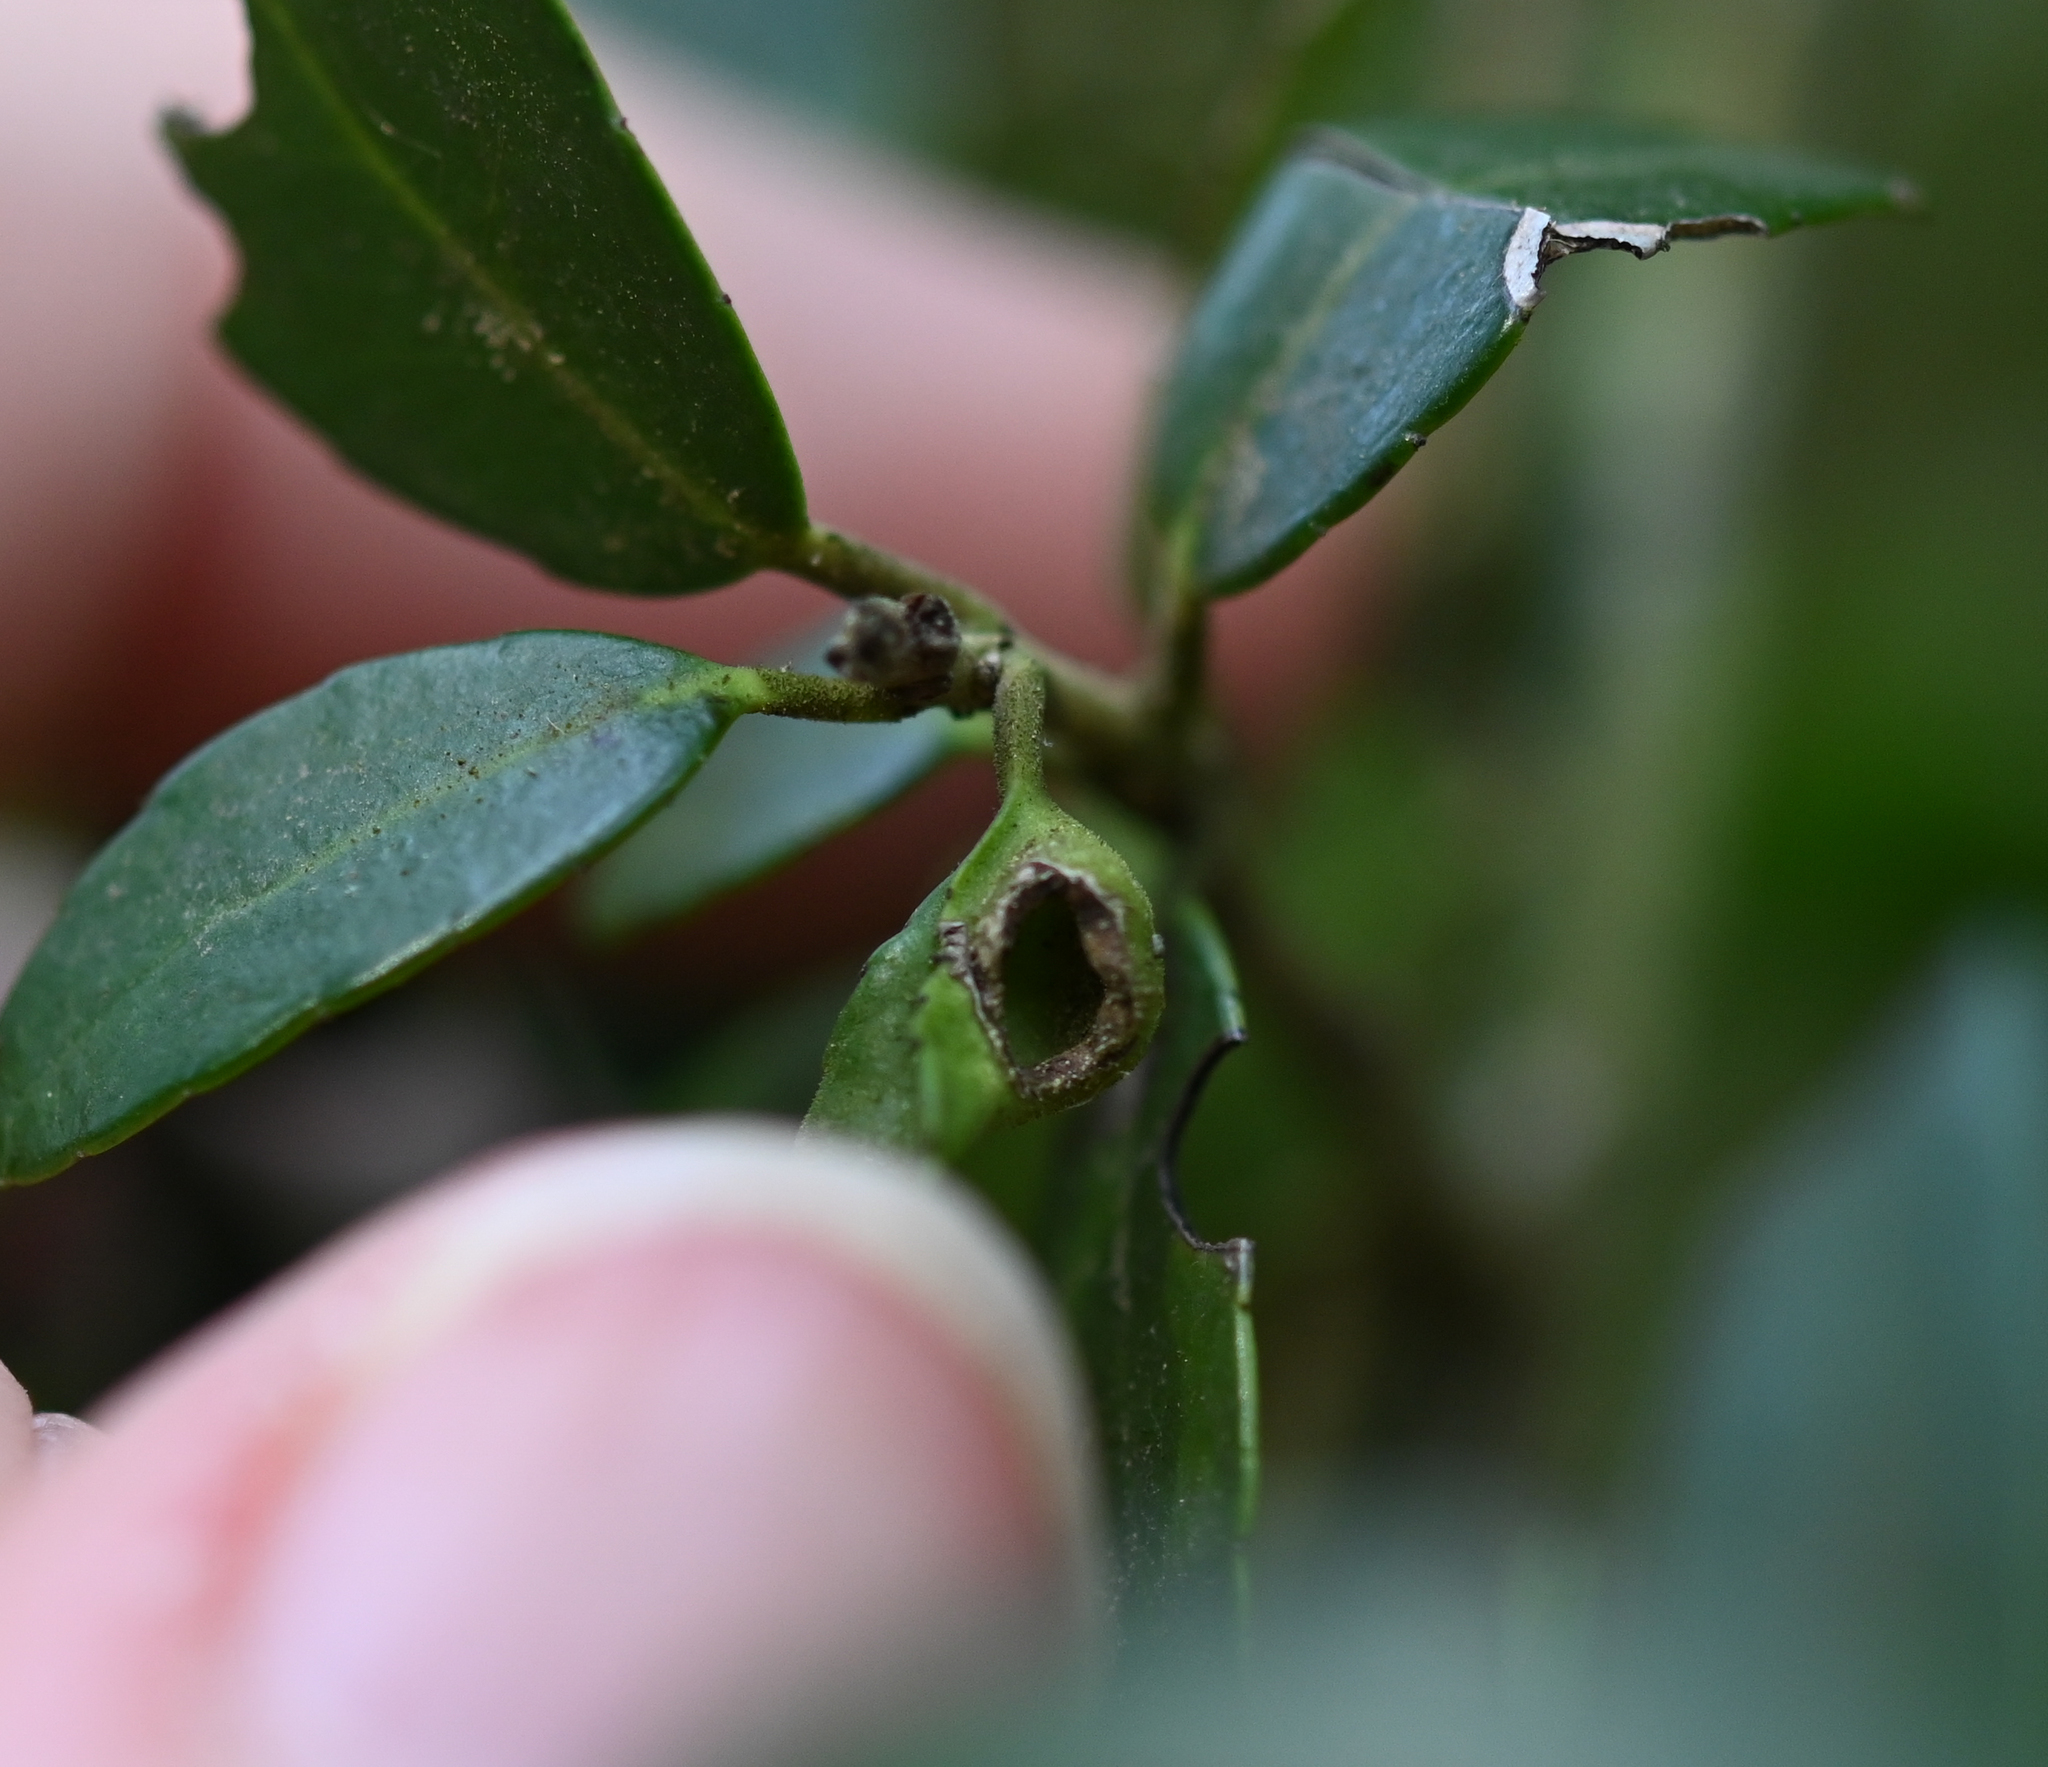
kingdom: Animalia
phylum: Arthropoda
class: Insecta
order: Hemiptera
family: Aphalaridae
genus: Gyropsylla
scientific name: Gyropsylla ilecis
